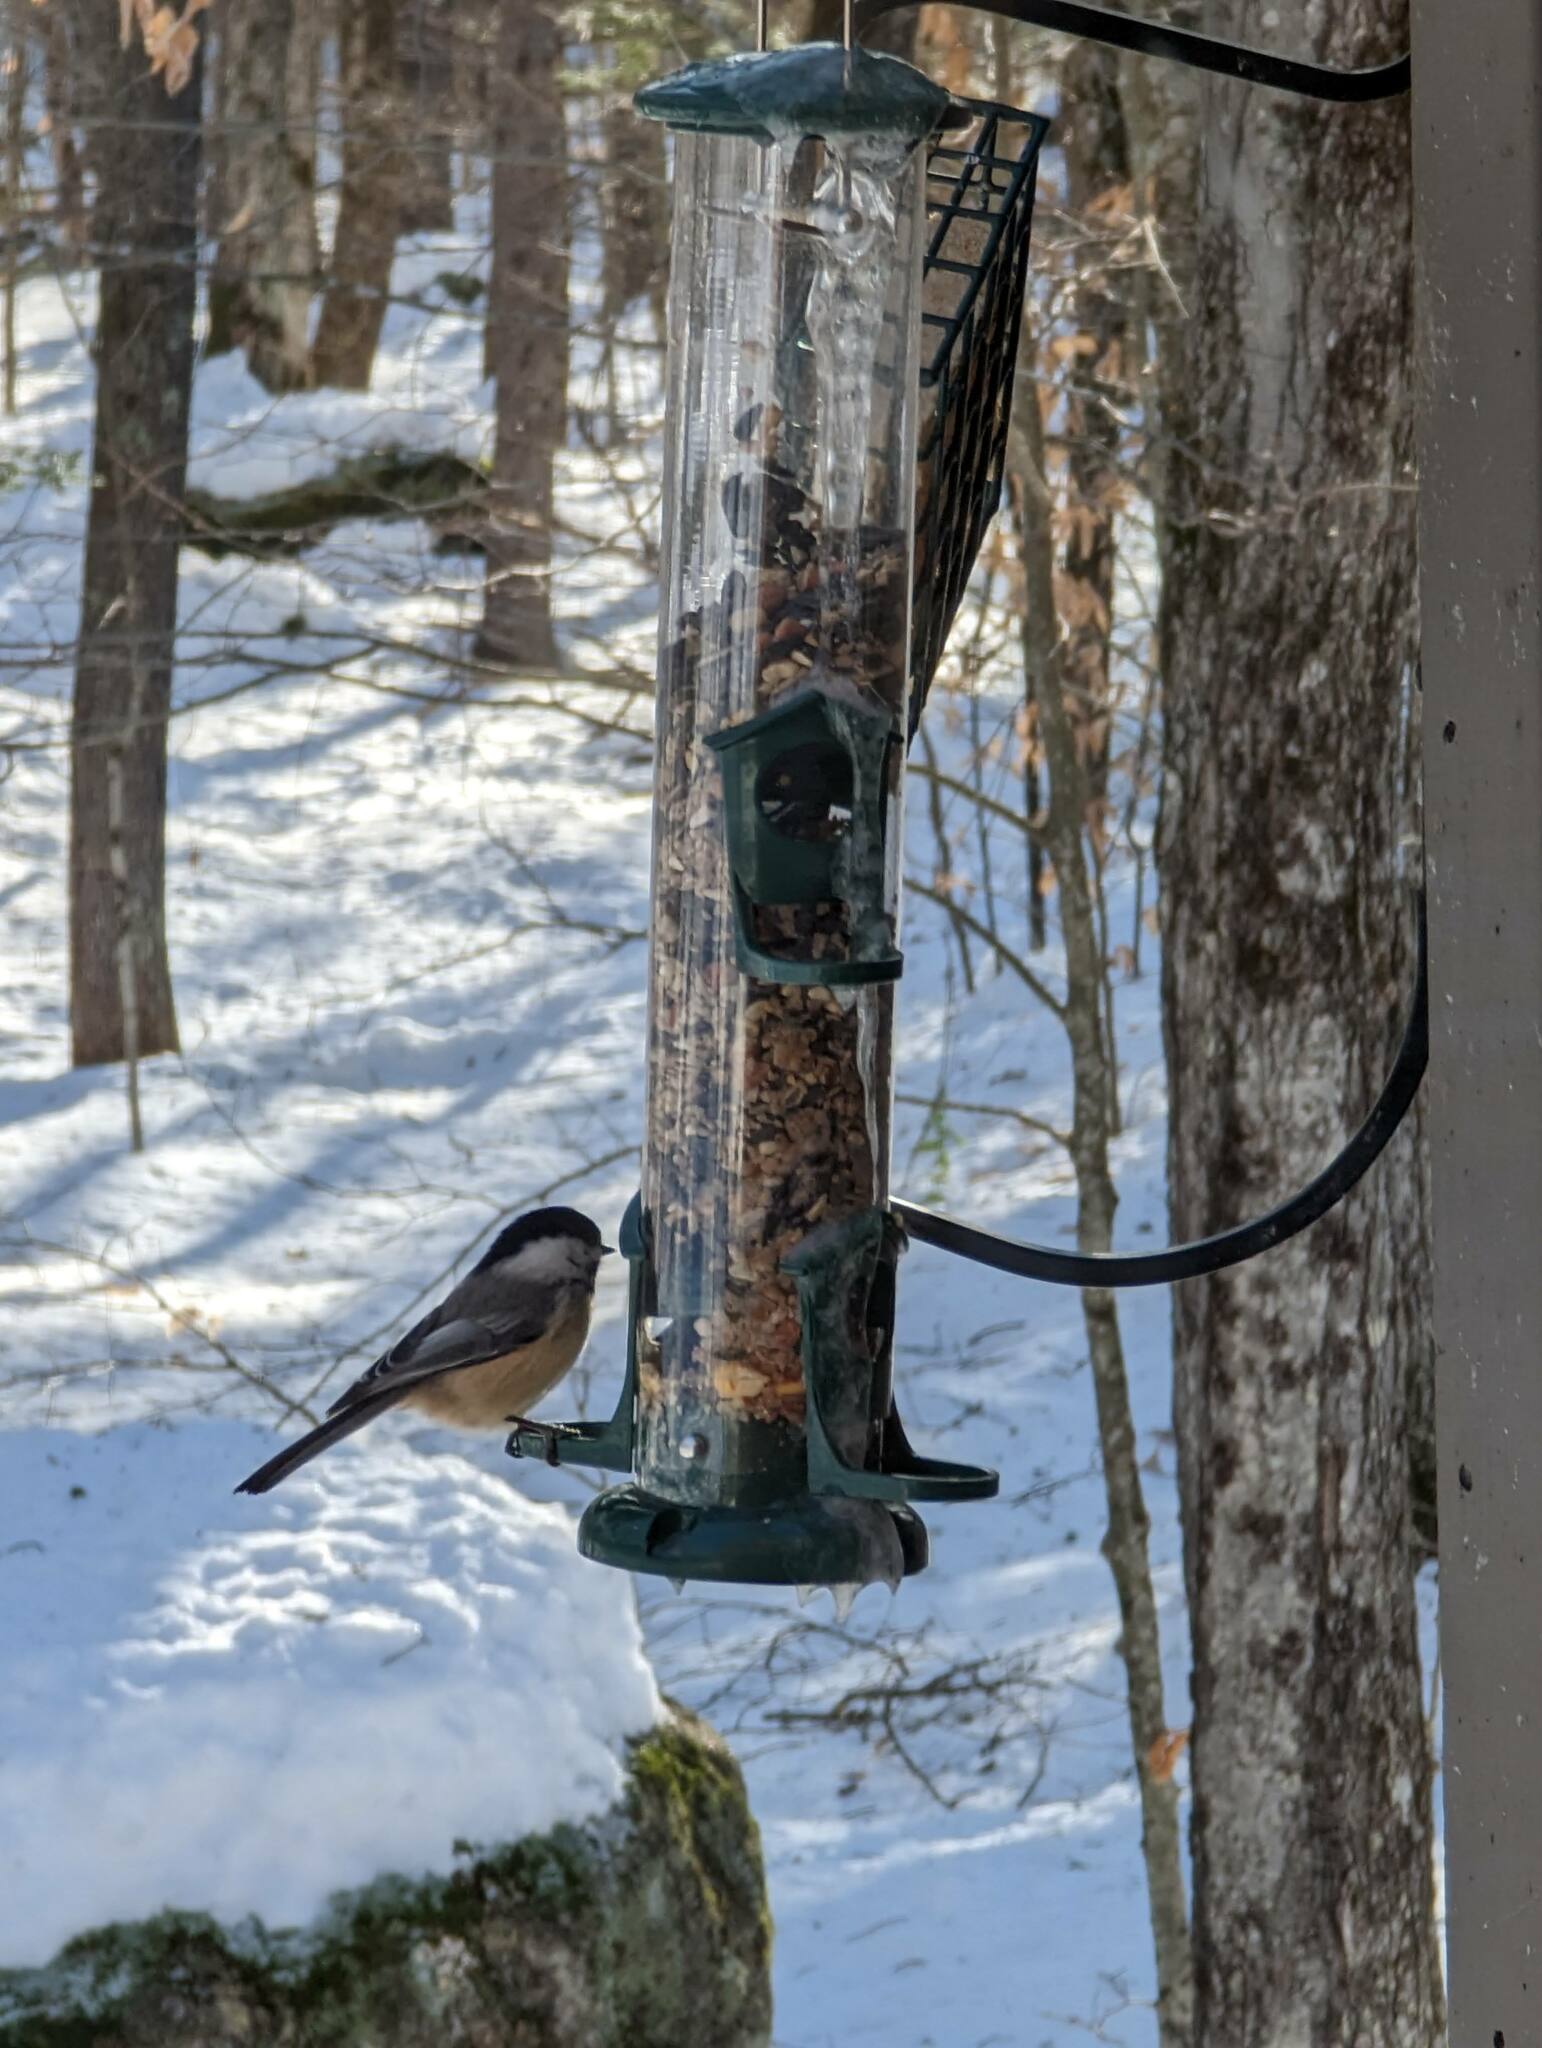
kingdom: Animalia
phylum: Chordata
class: Aves
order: Passeriformes
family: Paridae
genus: Poecile
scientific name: Poecile atricapillus
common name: Black-capped chickadee
